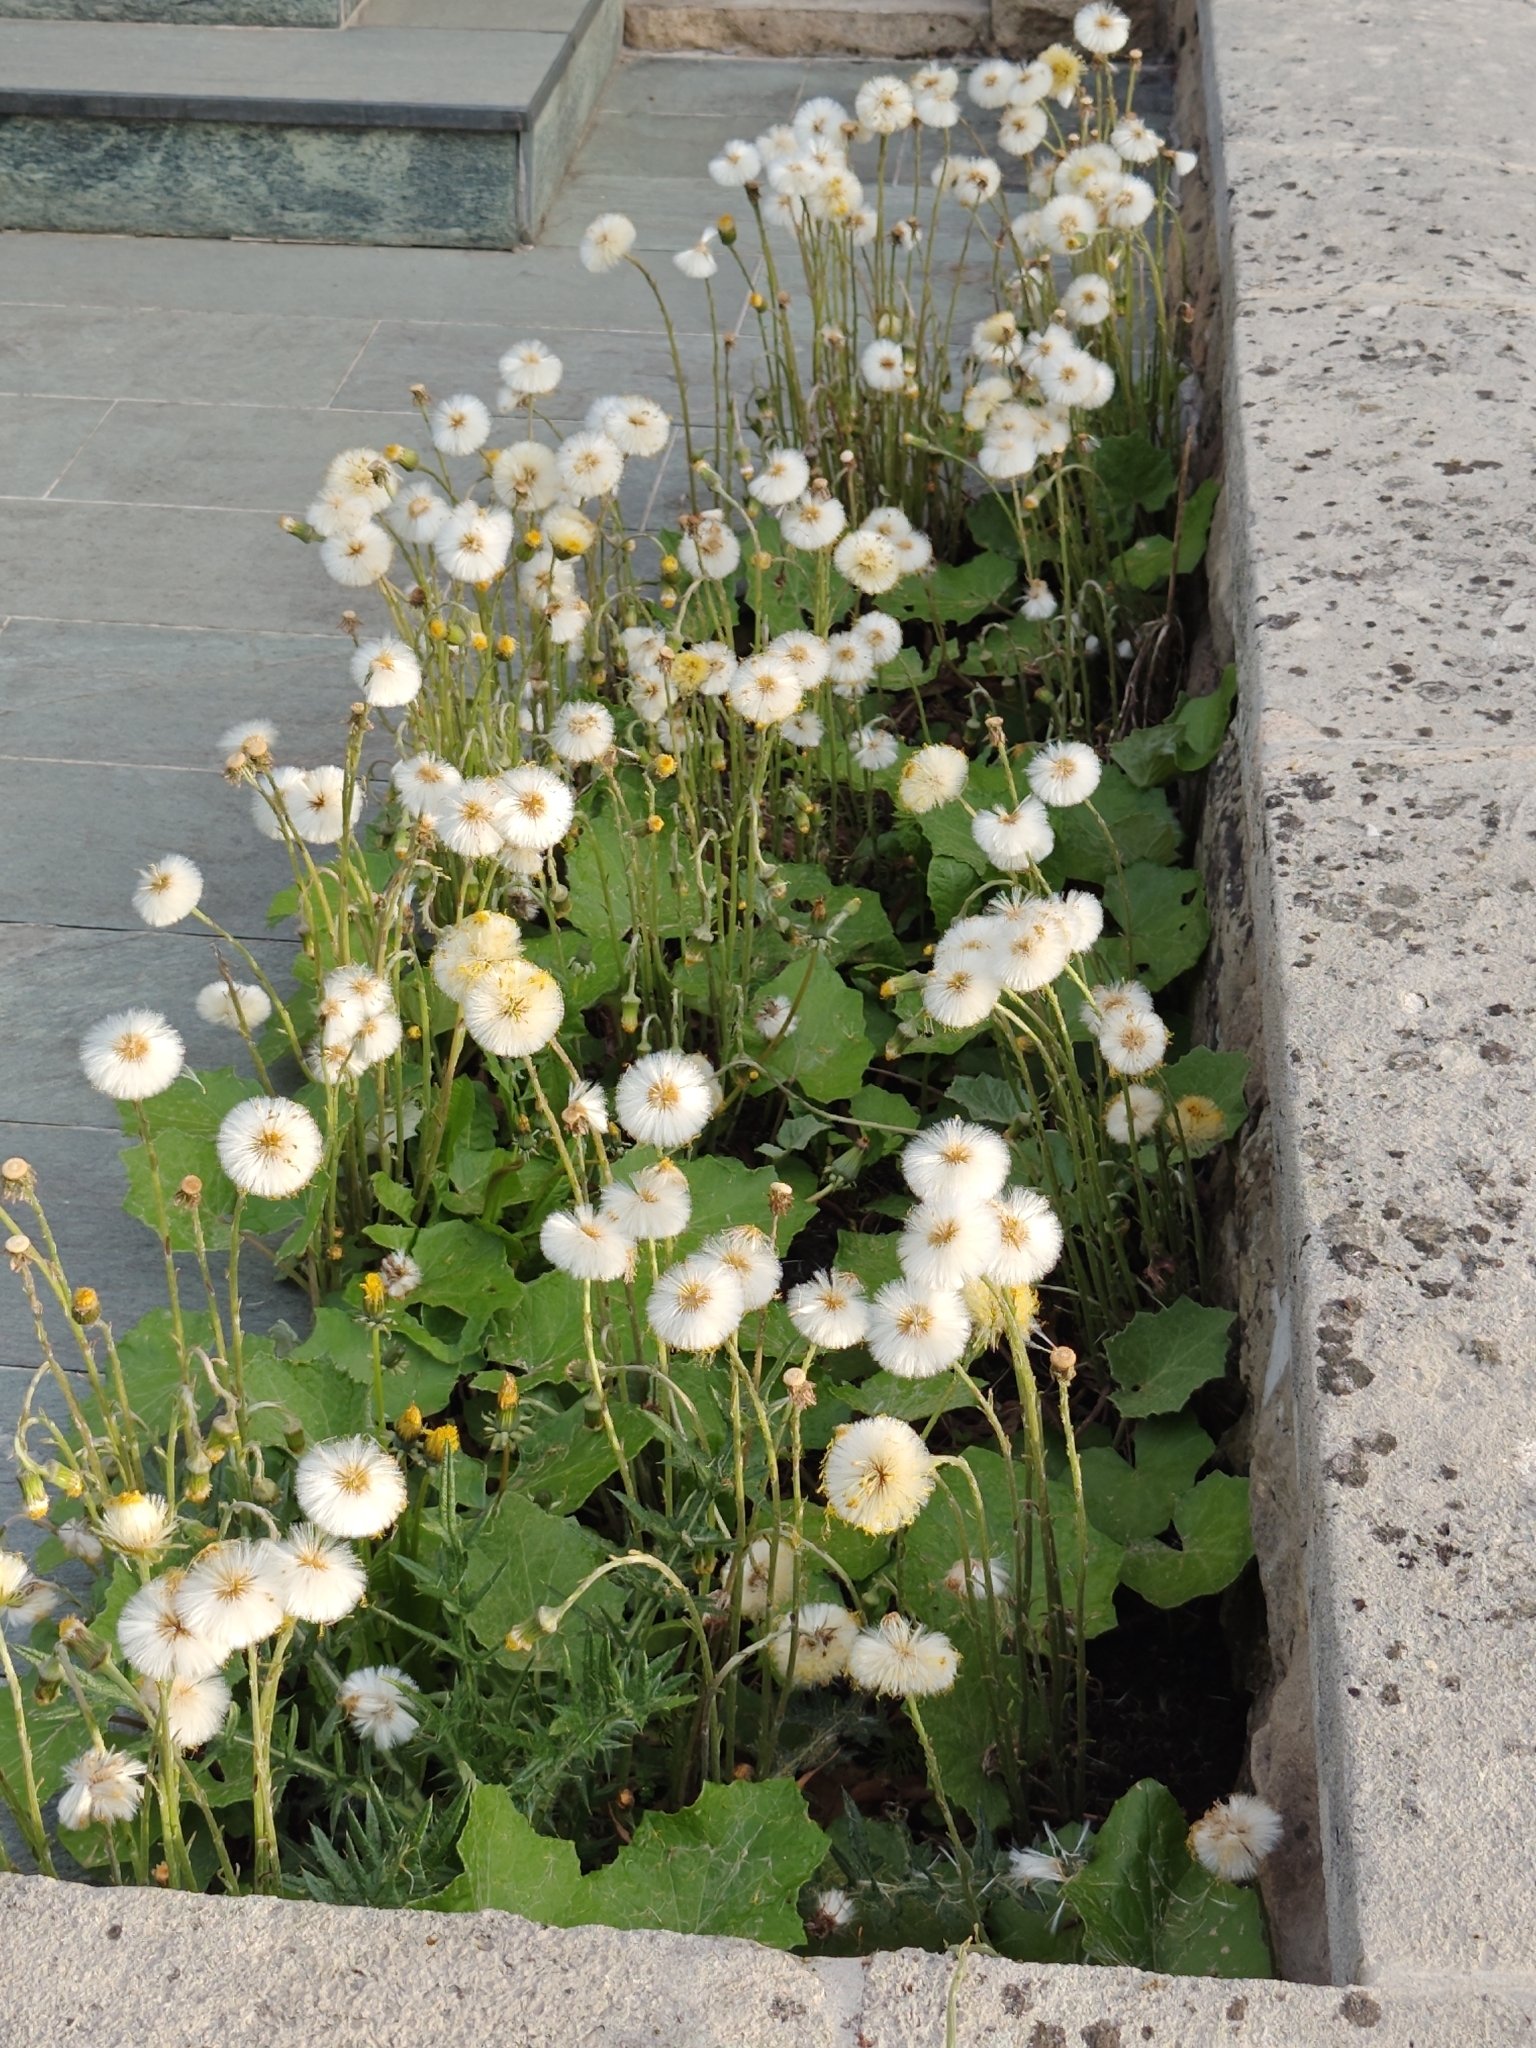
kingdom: Plantae
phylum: Tracheophyta
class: Magnoliopsida
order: Asterales
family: Asteraceae
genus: Tussilago
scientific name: Tussilago farfara
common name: Coltsfoot
